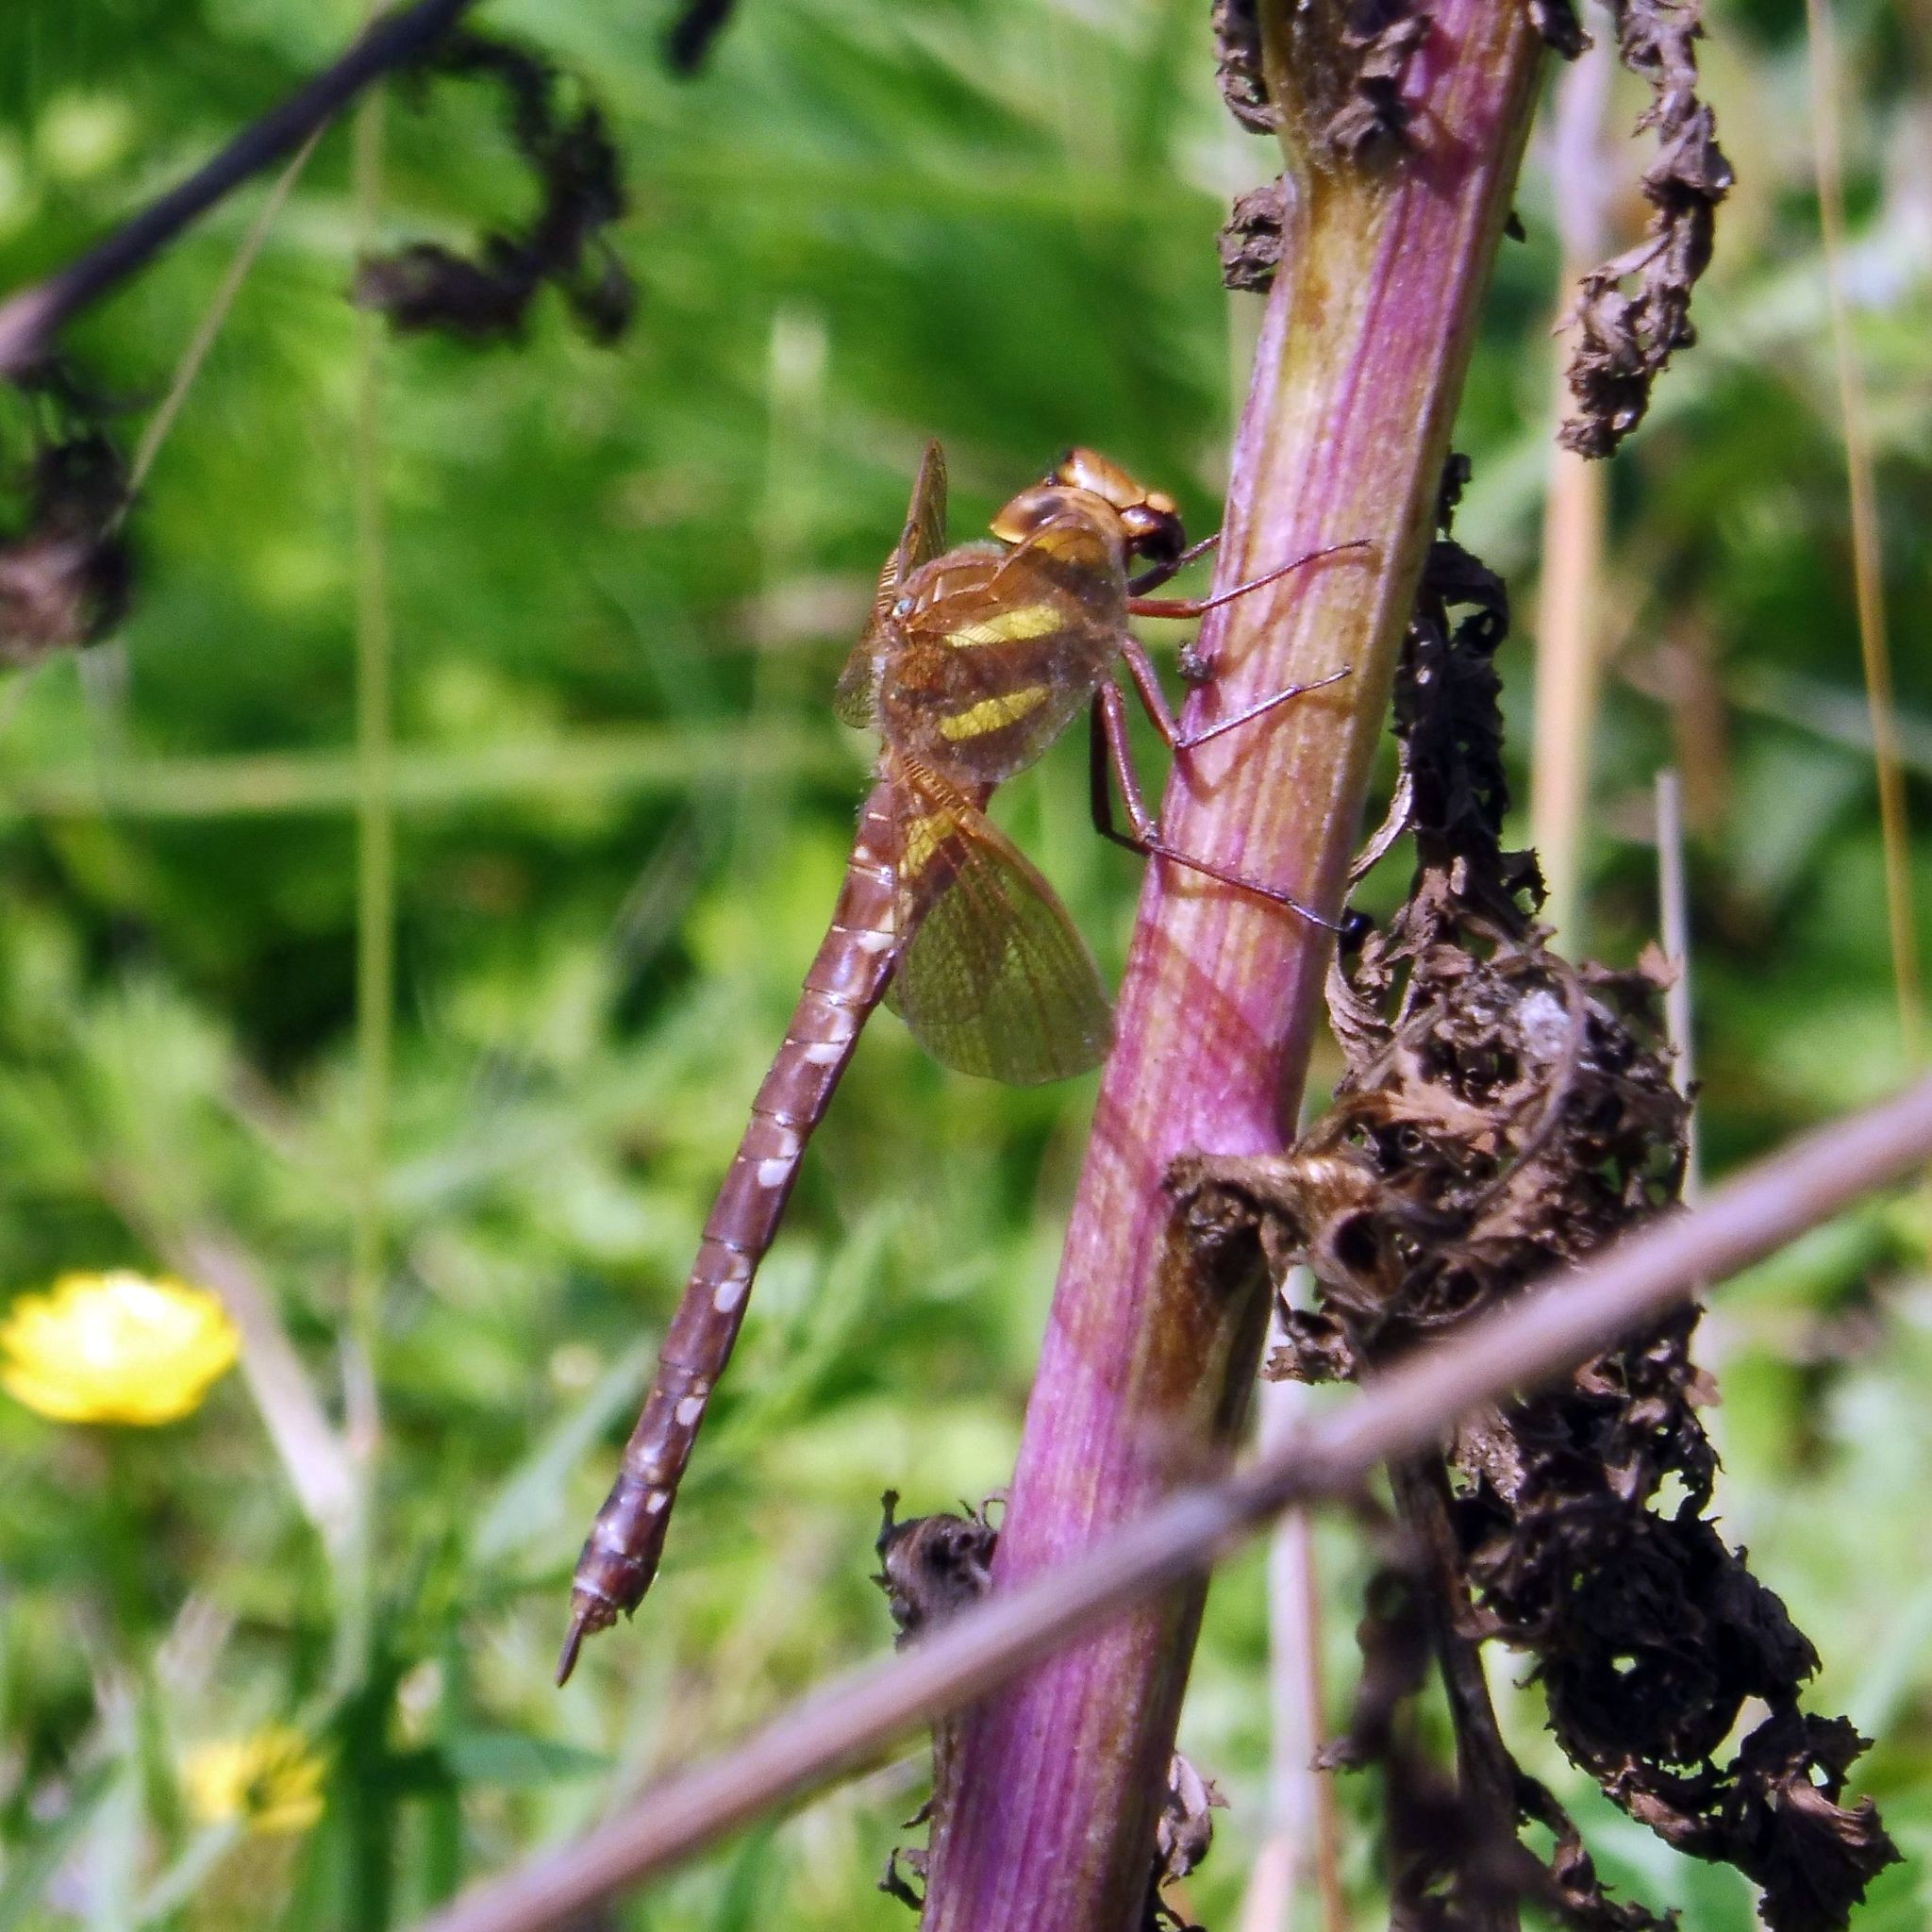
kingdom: Animalia
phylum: Arthropoda
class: Insecta
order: Odonata
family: Aeshnidae
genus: Aeshna
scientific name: Aeshna grandis
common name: Brown hawker
